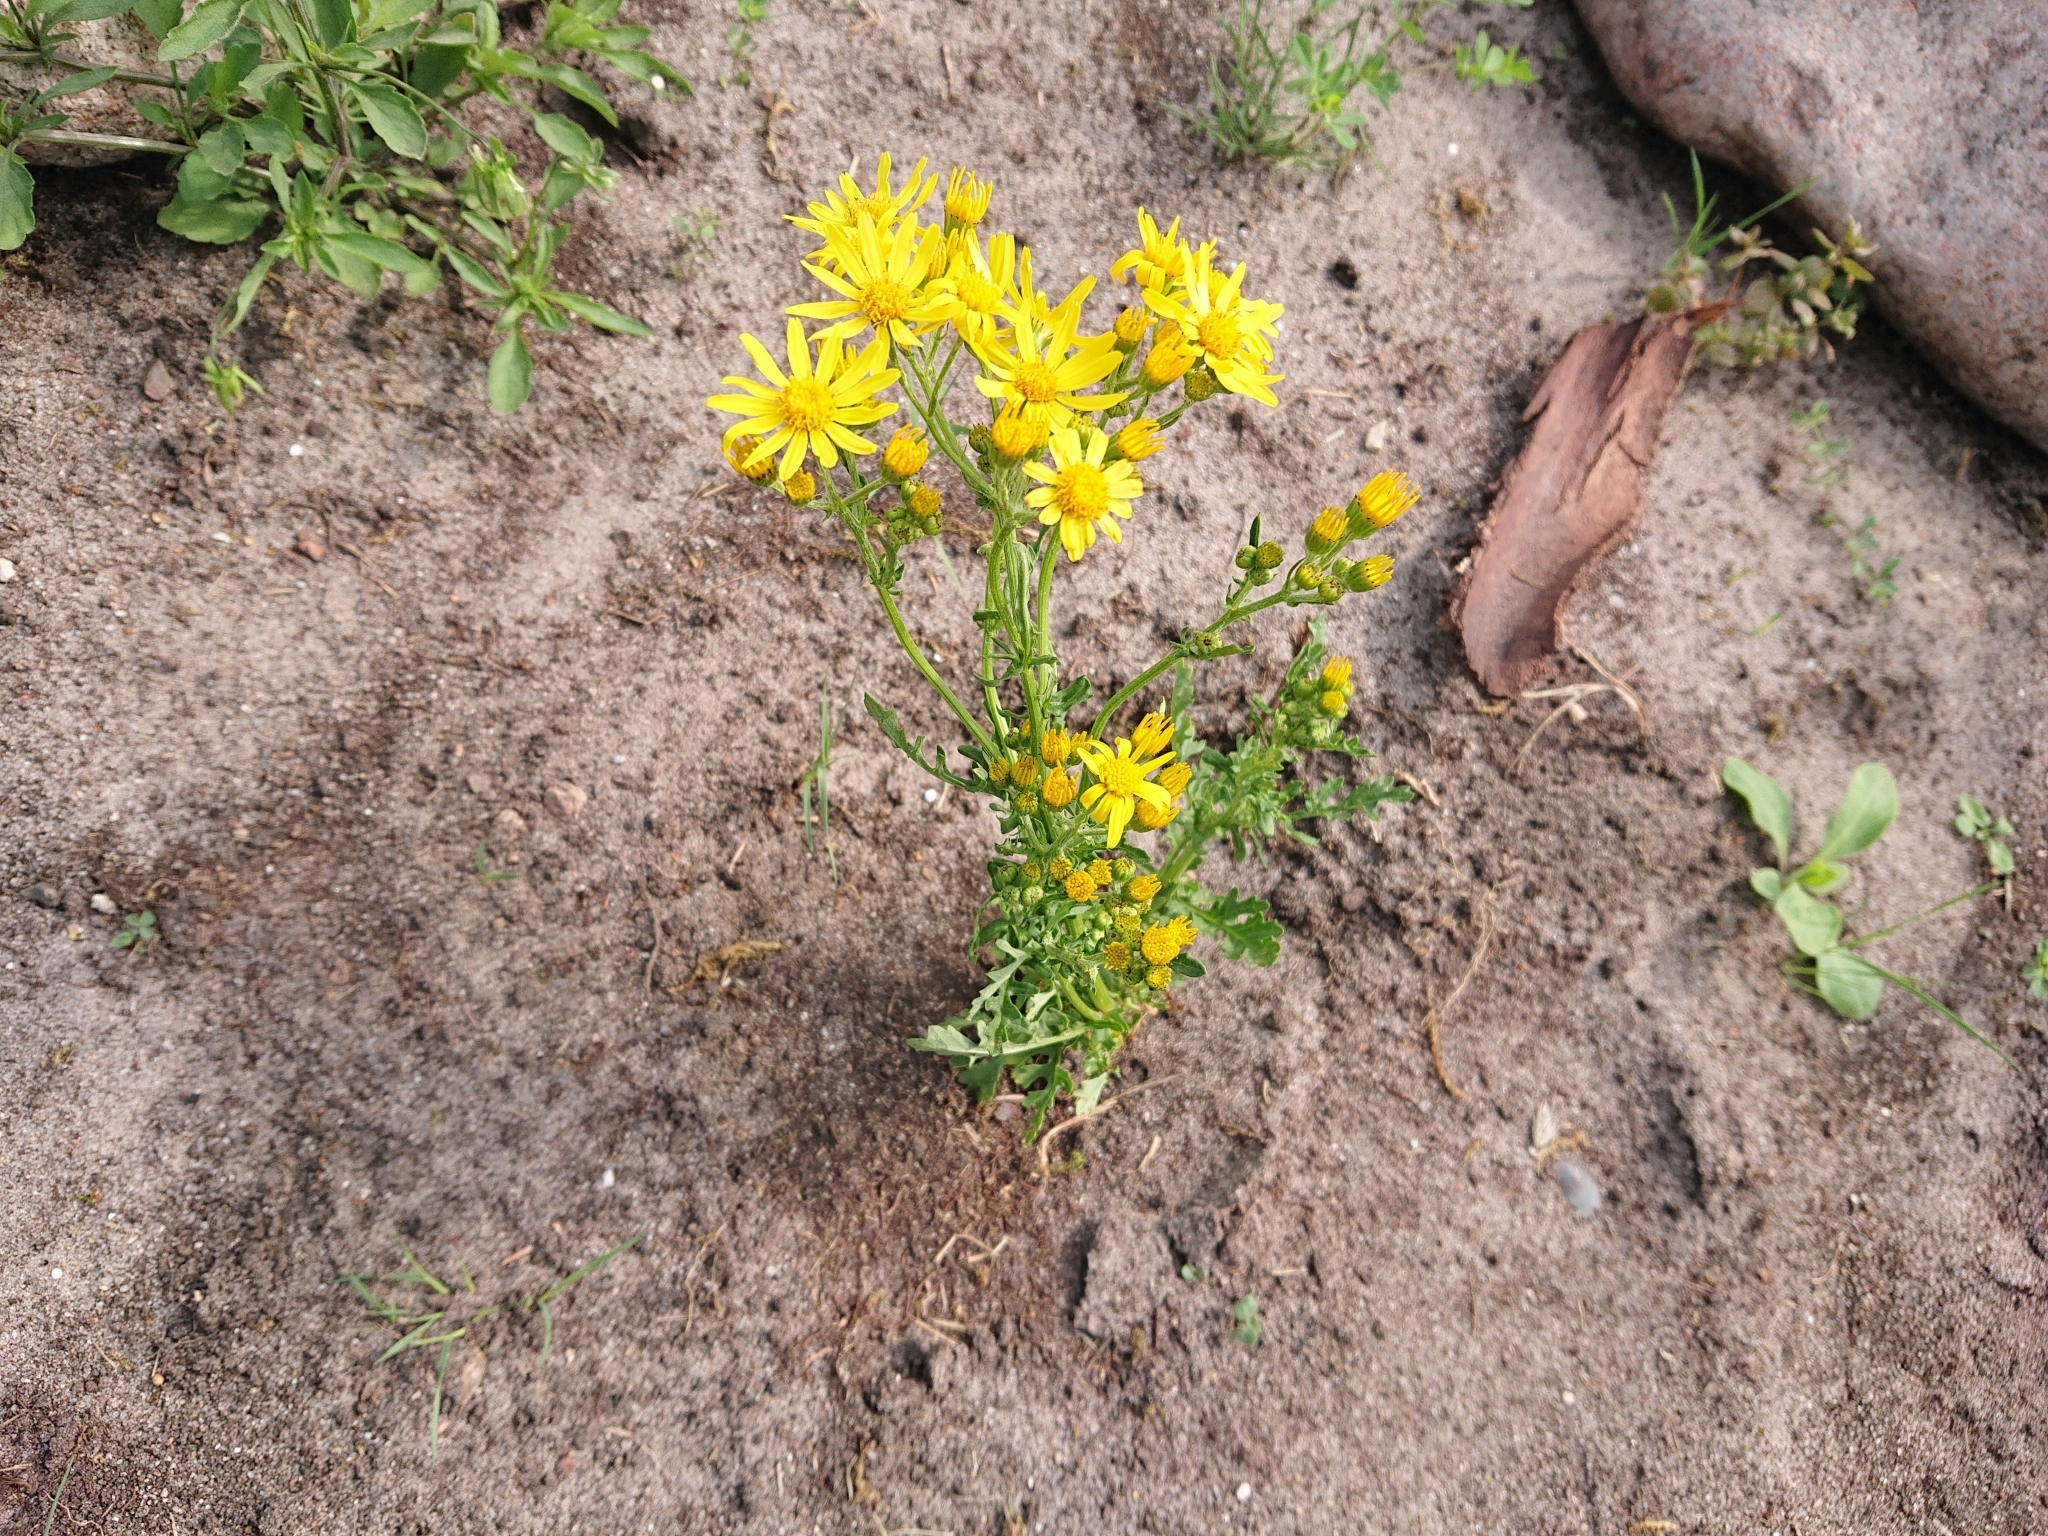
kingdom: Plantae
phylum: Tracheophyta
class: Magnoliopsida
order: Asterales
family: Asteraceae
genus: Jacobaea
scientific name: Jacobaea vulgaris
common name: Stinking willie
